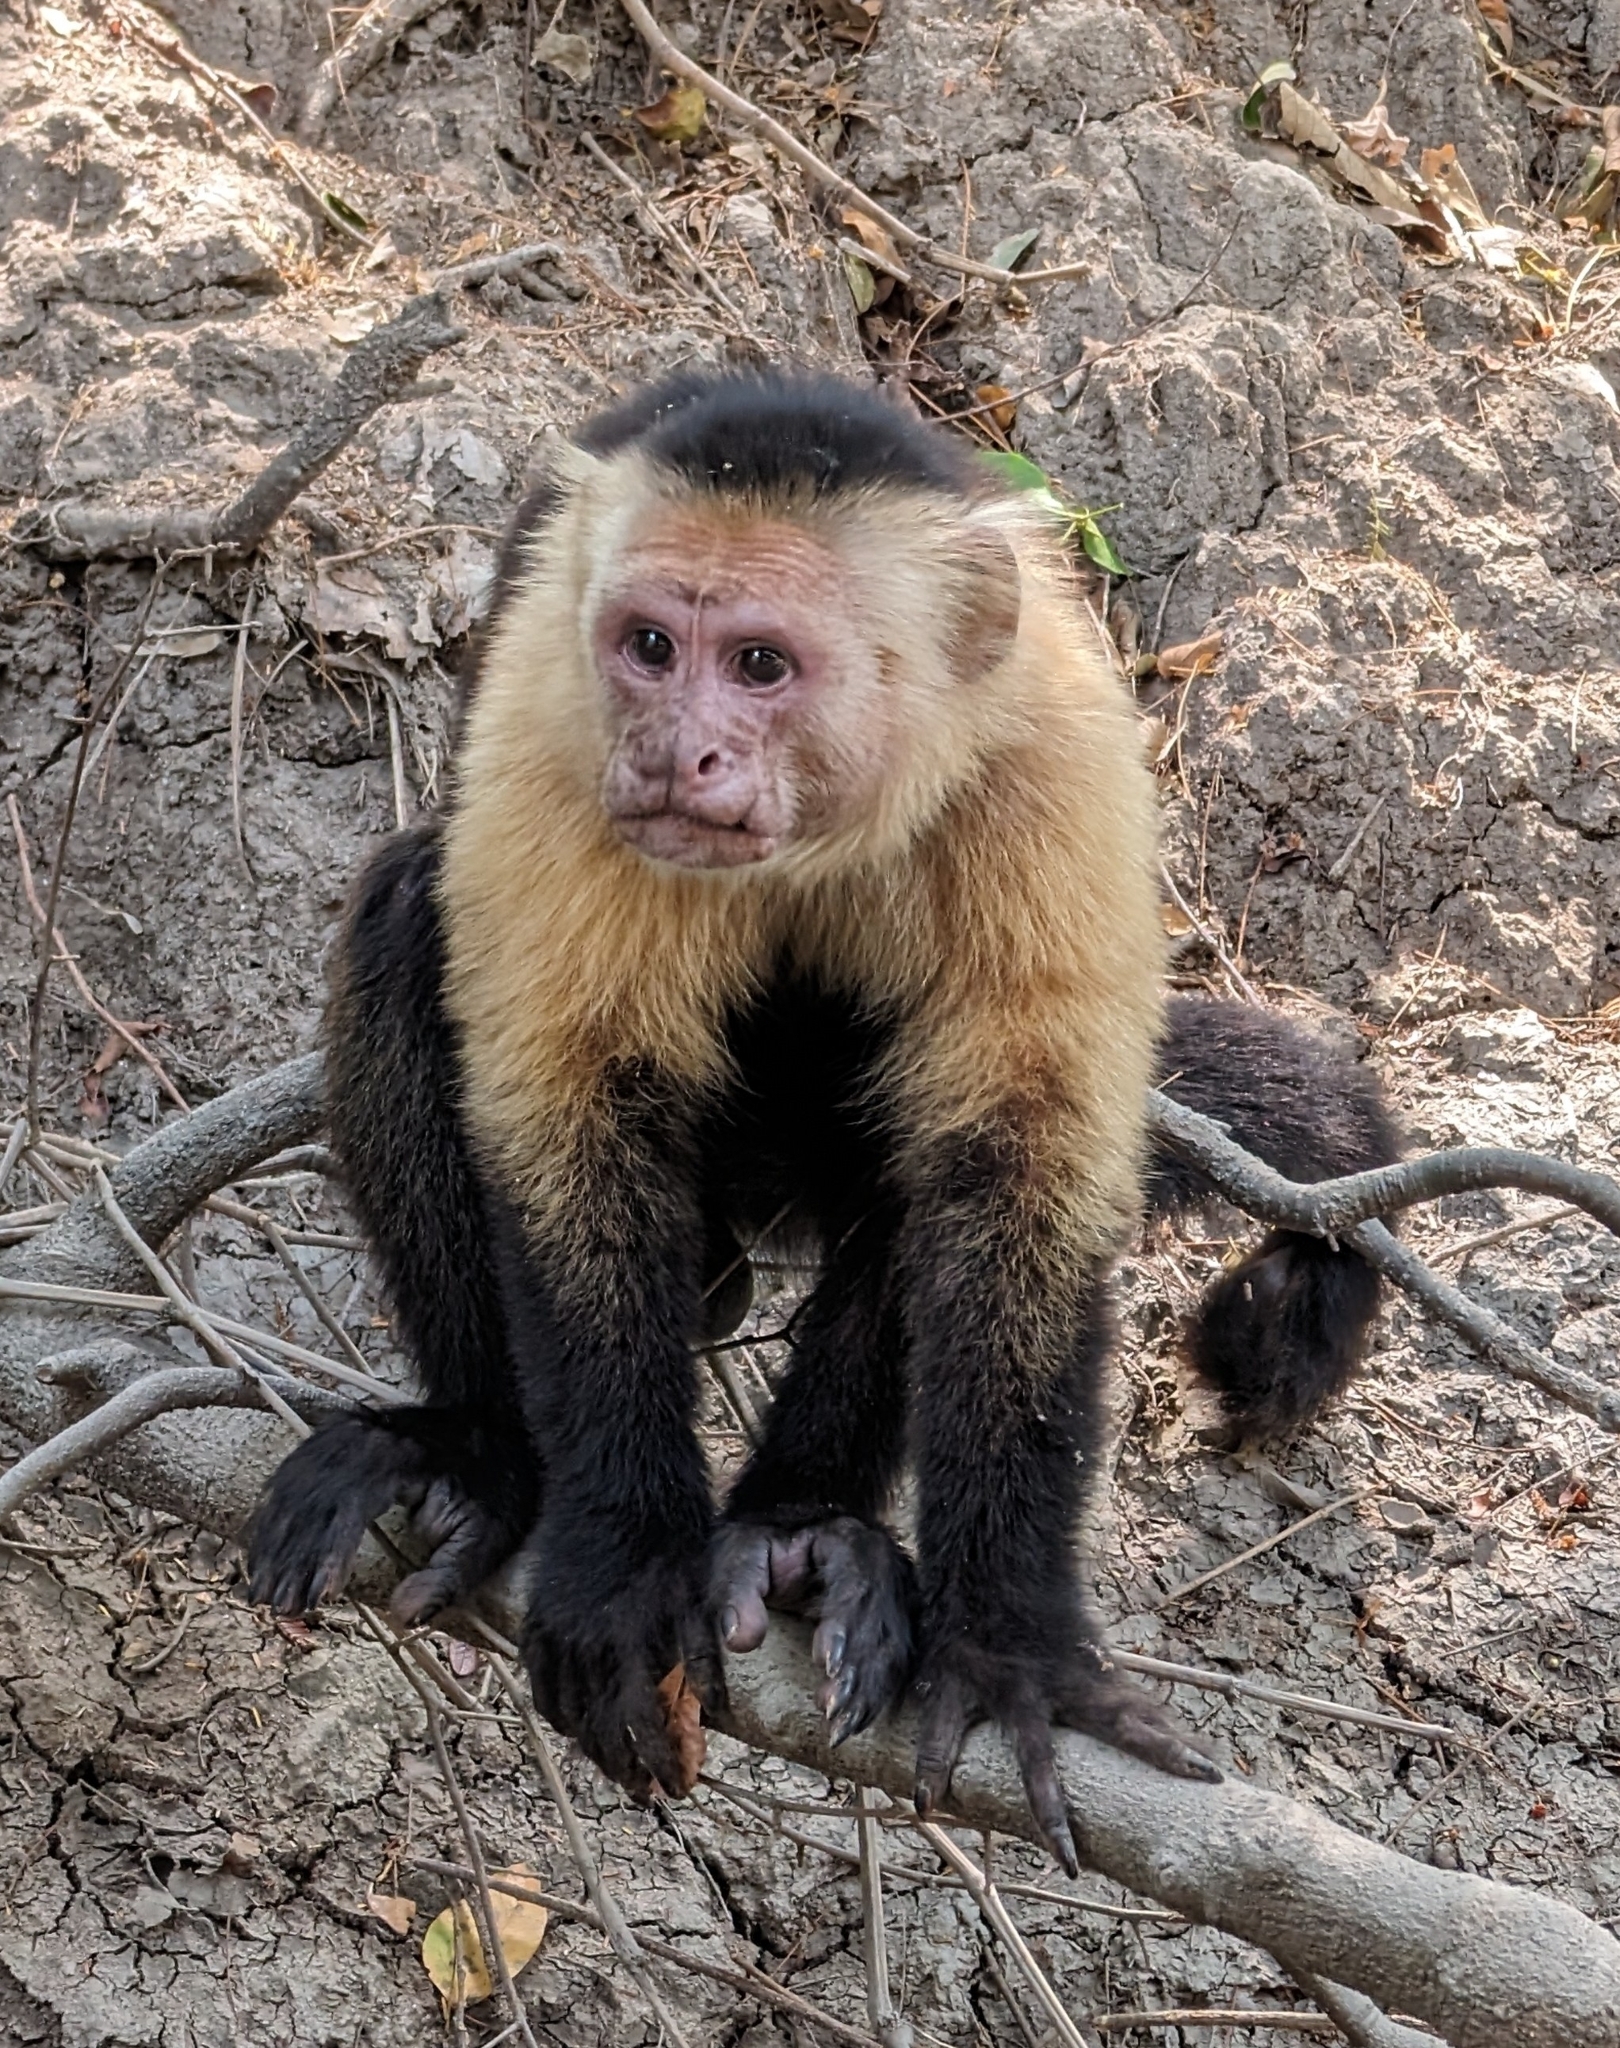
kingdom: Animalia
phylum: Chordata
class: Mammalia
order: Primates
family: Cebidae
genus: Cebus
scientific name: Cebus imitator
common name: Panamanian white-faced capuchin
